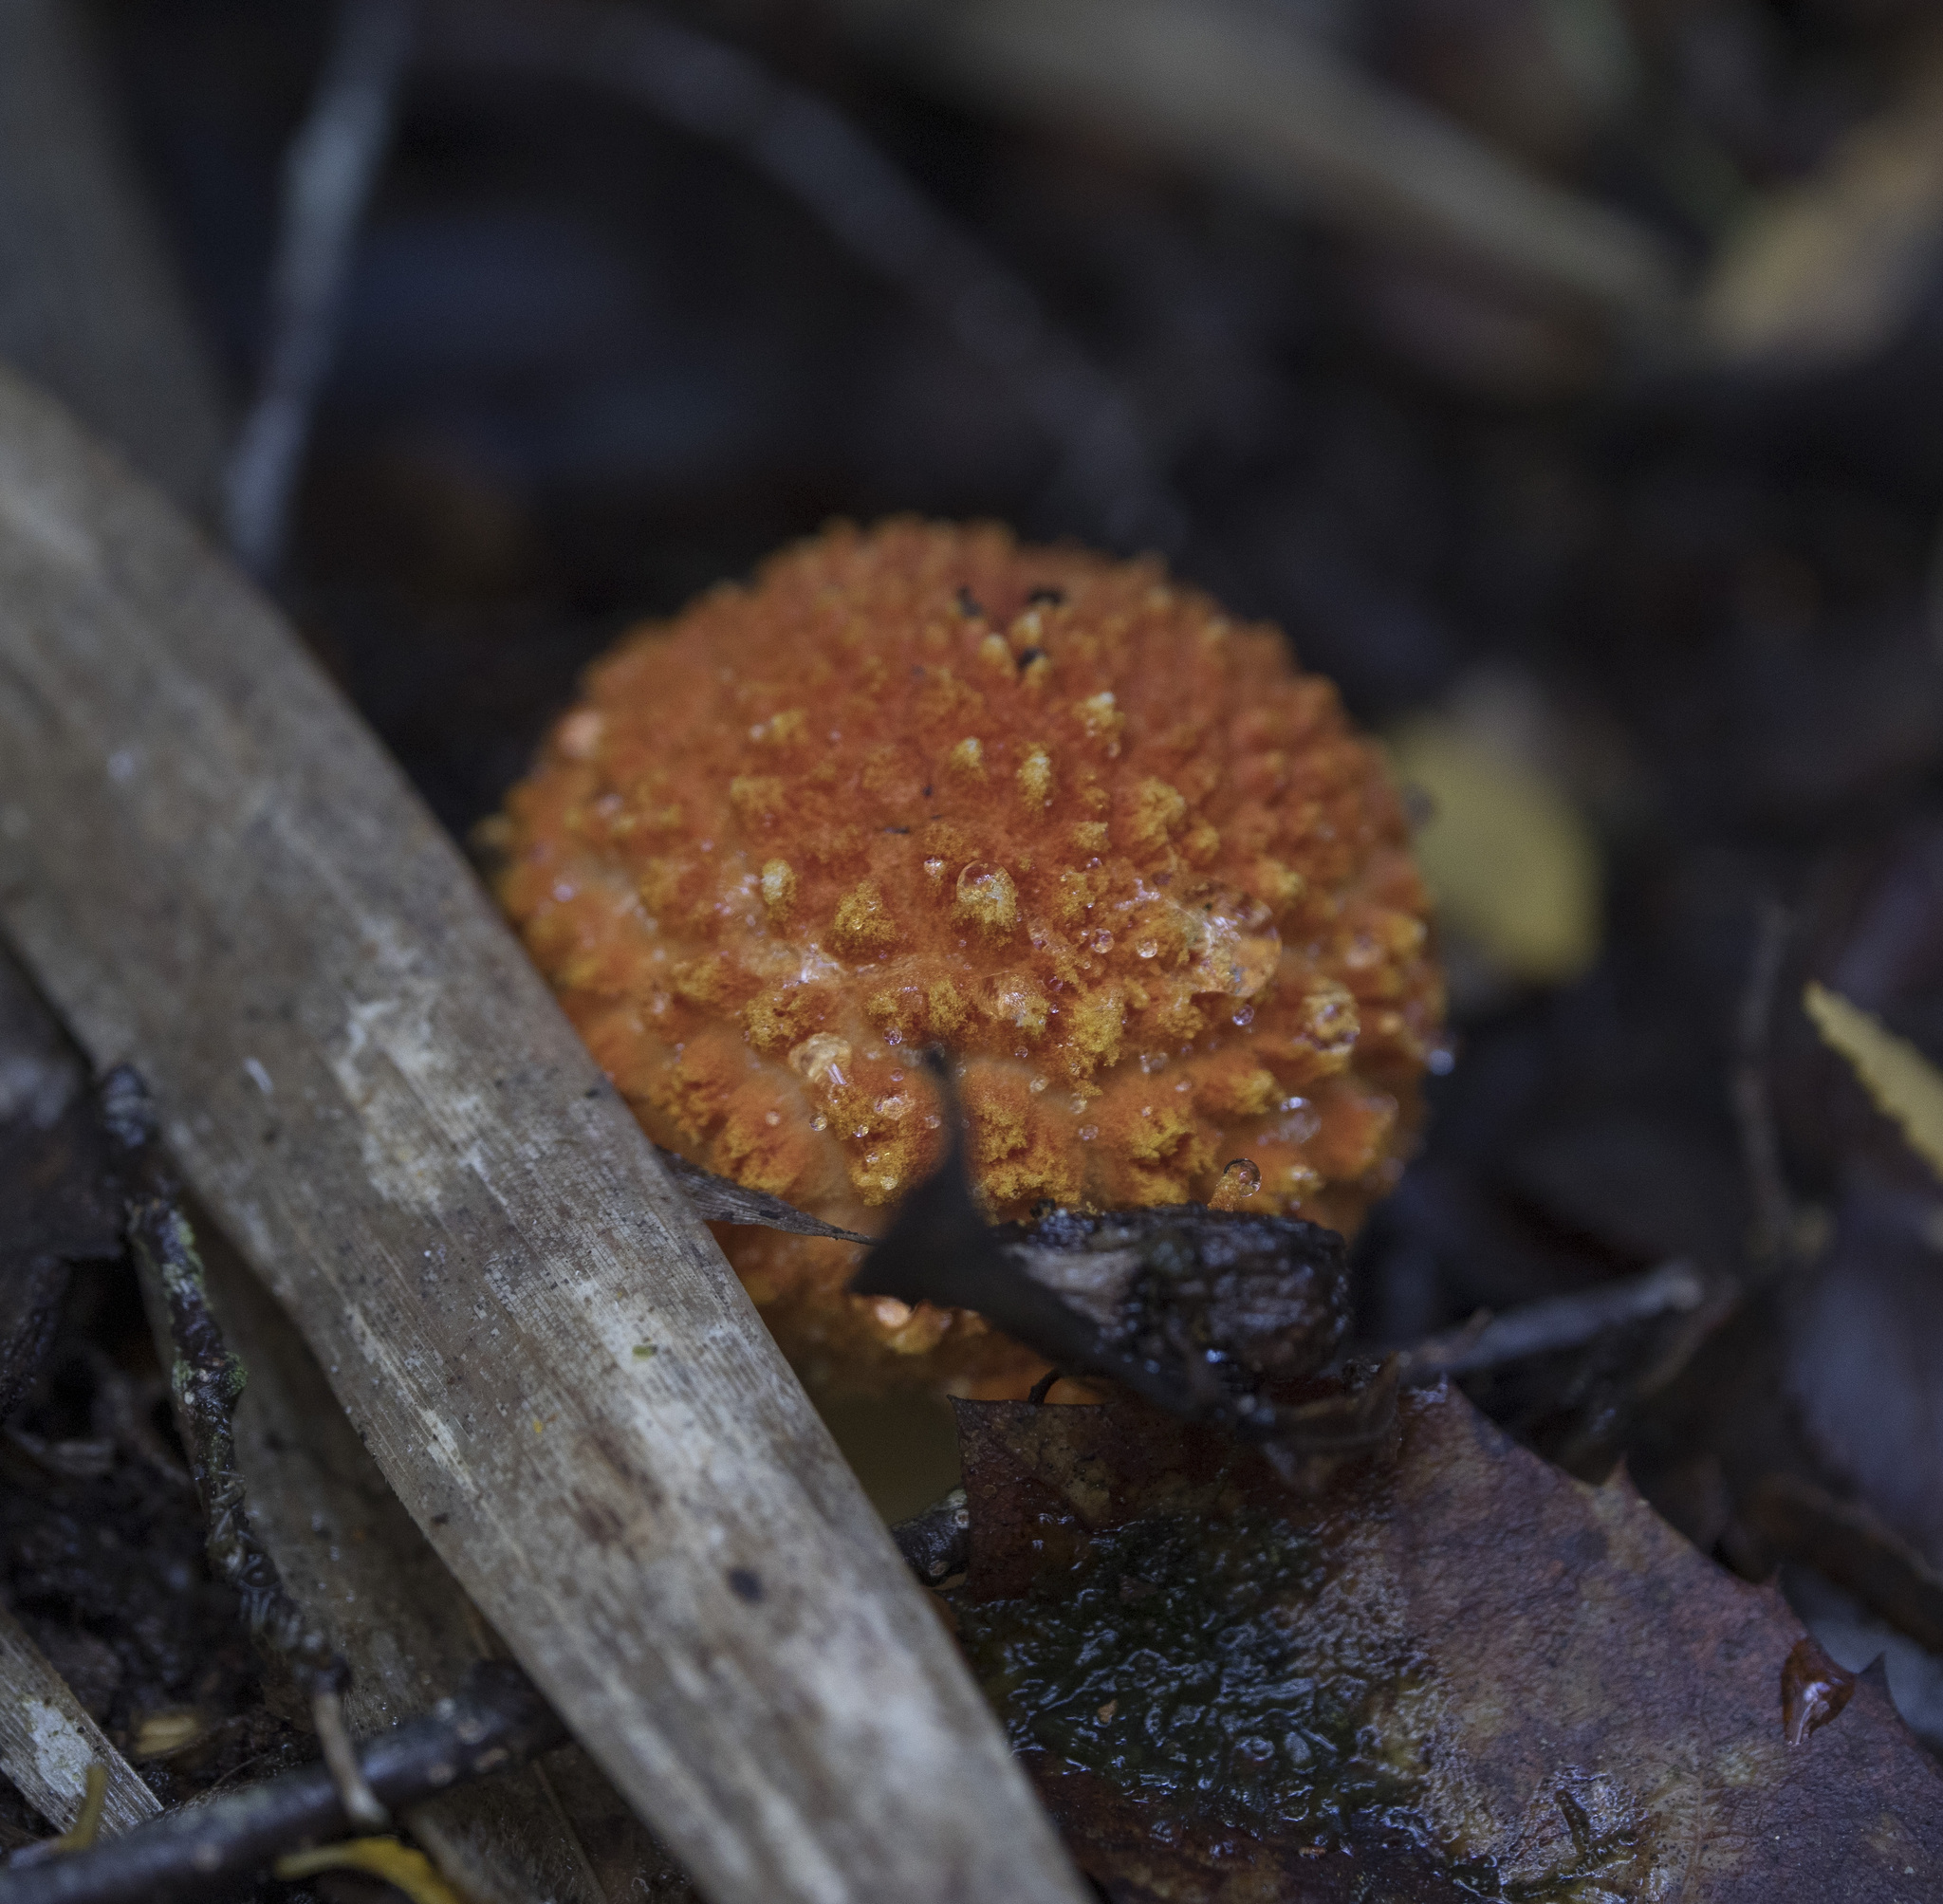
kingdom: Fungi
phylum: Basidiomycota
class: Agaricomycetes
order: Agaricales
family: Amanitaceae
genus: Amanita
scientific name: Amanita aurantiovelata
